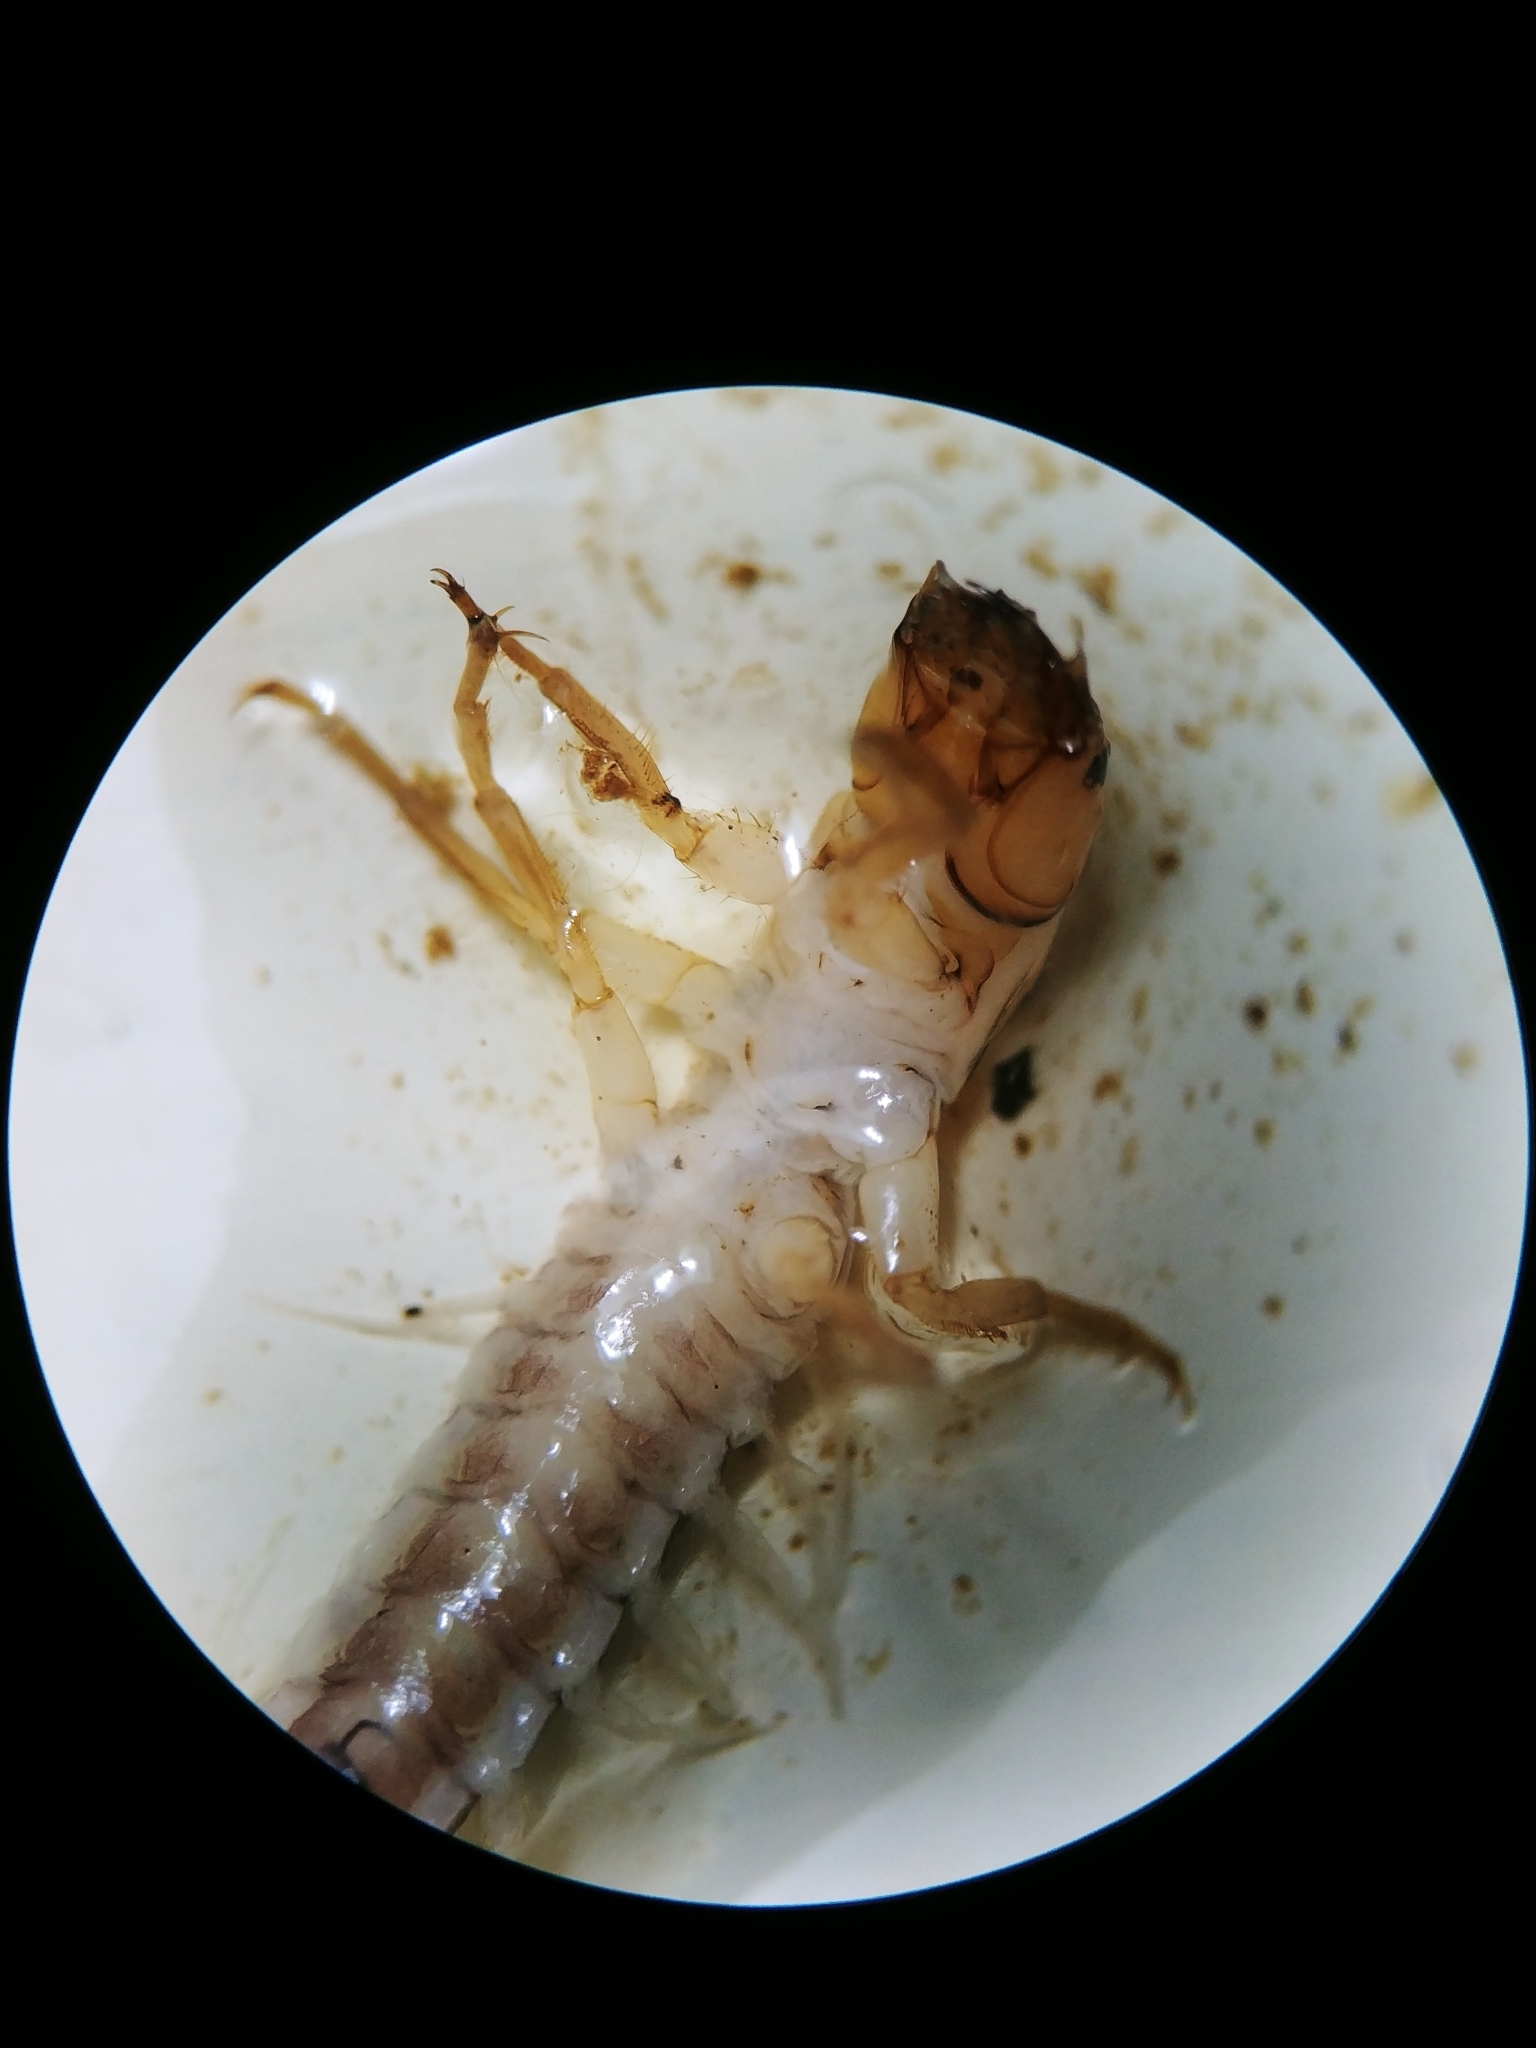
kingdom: Animalia
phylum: Arthropoda
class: Insecta
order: Megaloptera
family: Sialidae
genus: Sialis
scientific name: Sialis
